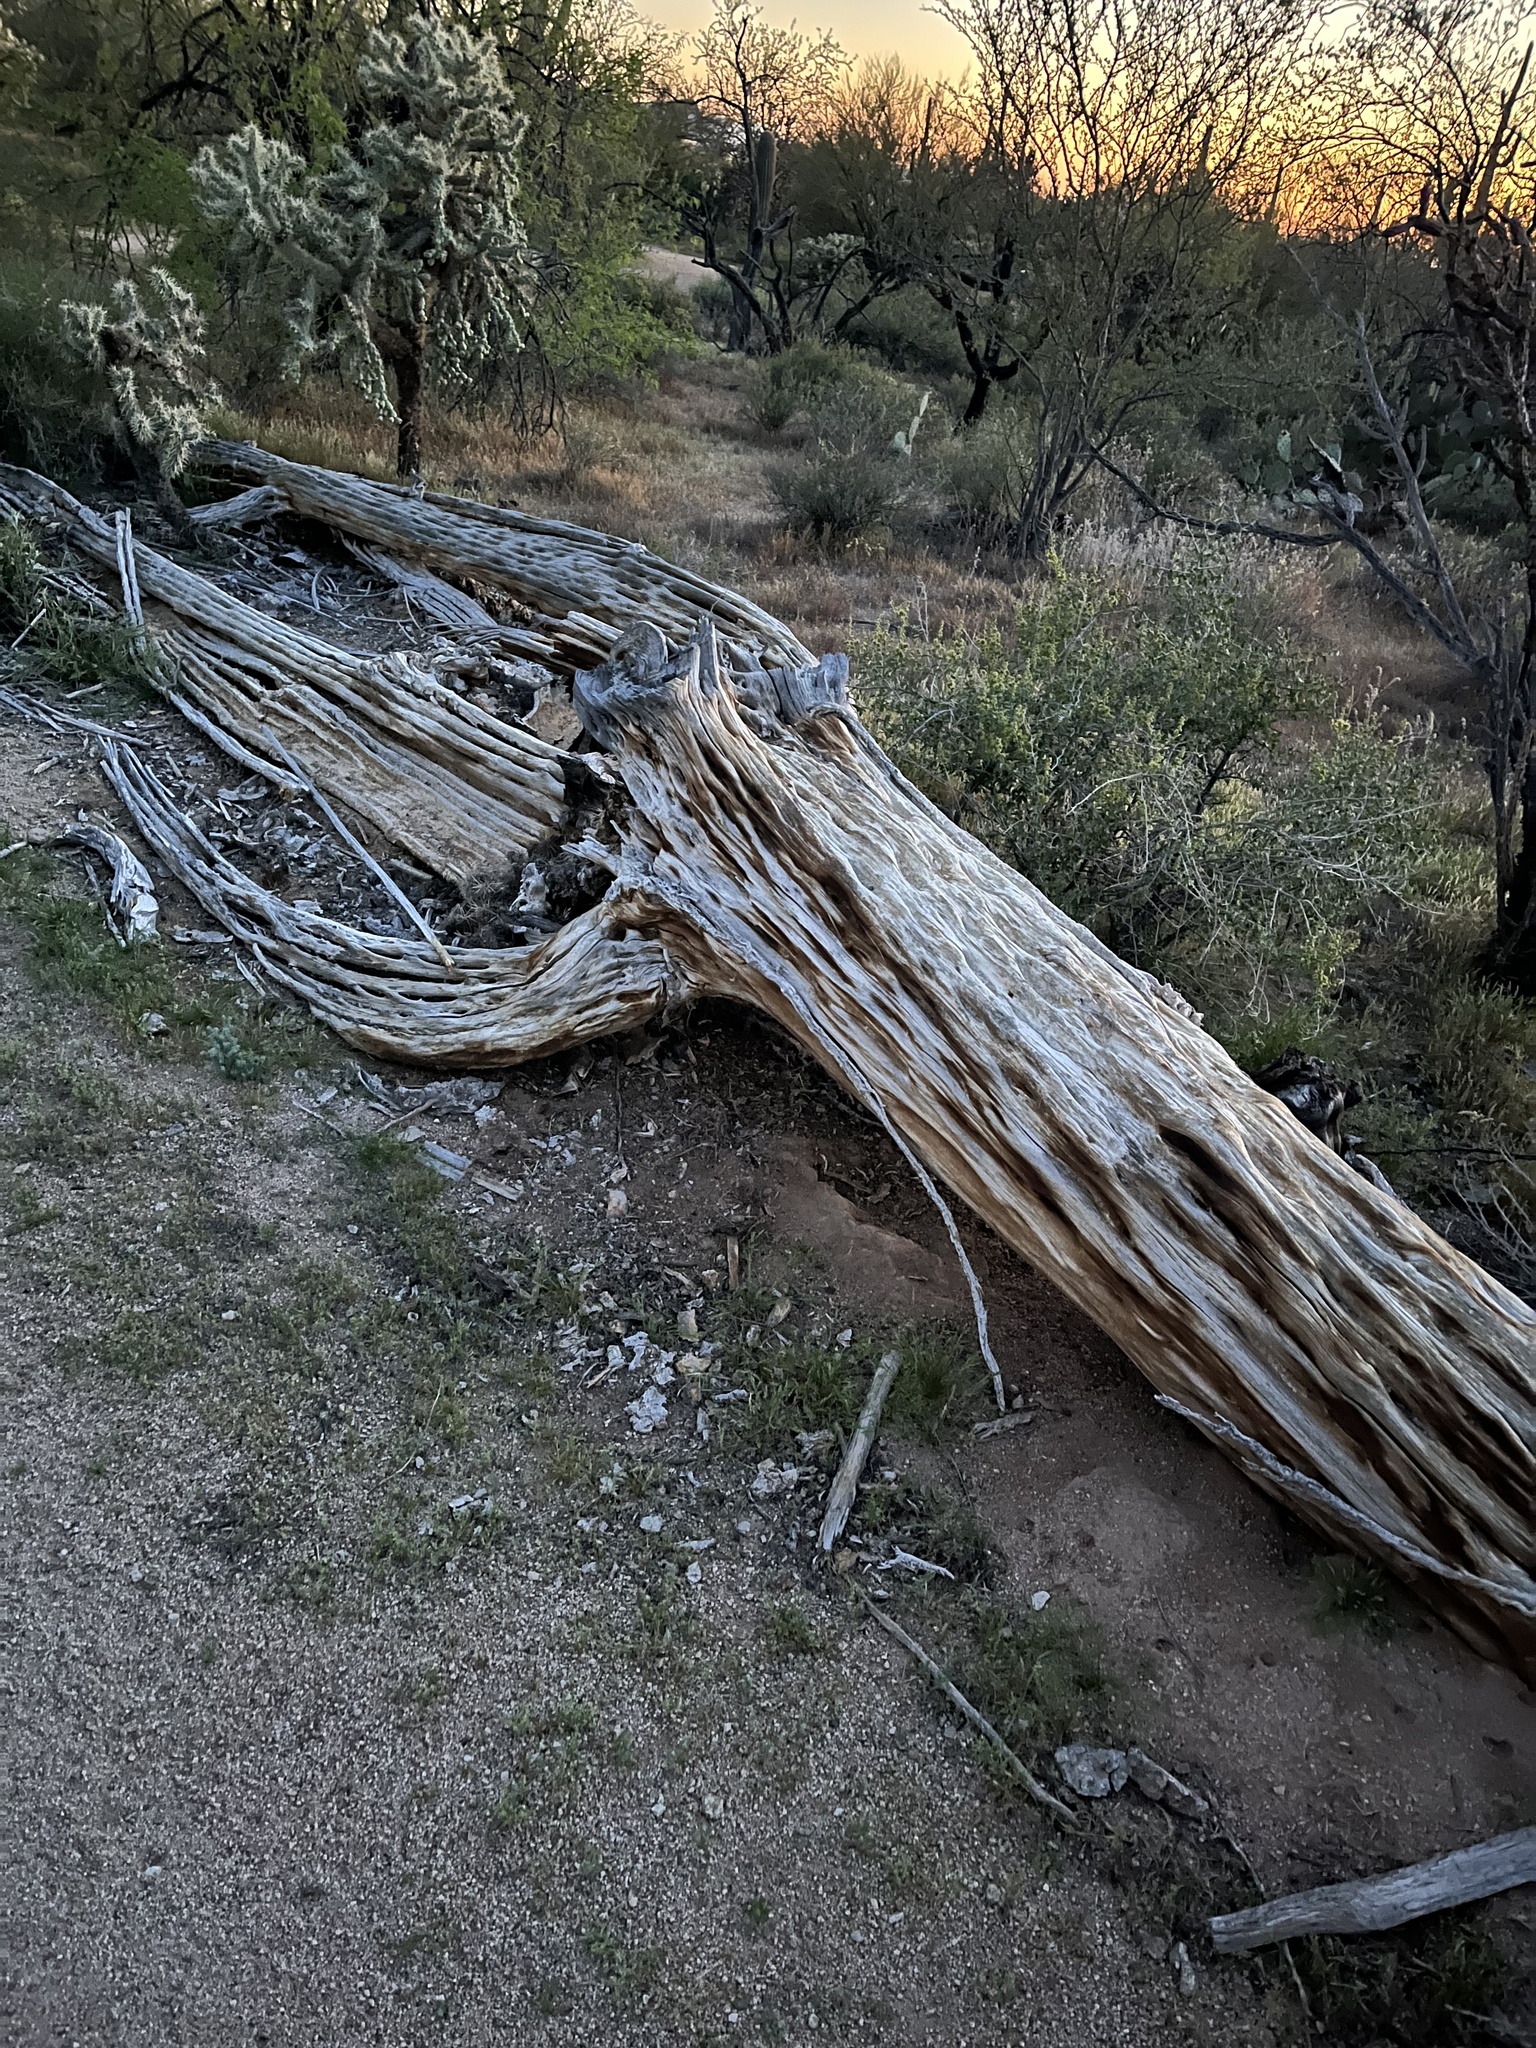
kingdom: Plantae
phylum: Tracheophyta
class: Magnoliopsida
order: Caryophyllales
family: Cactaceae
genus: Carnegiea
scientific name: Carnegiea gigantea
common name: Saguaro
